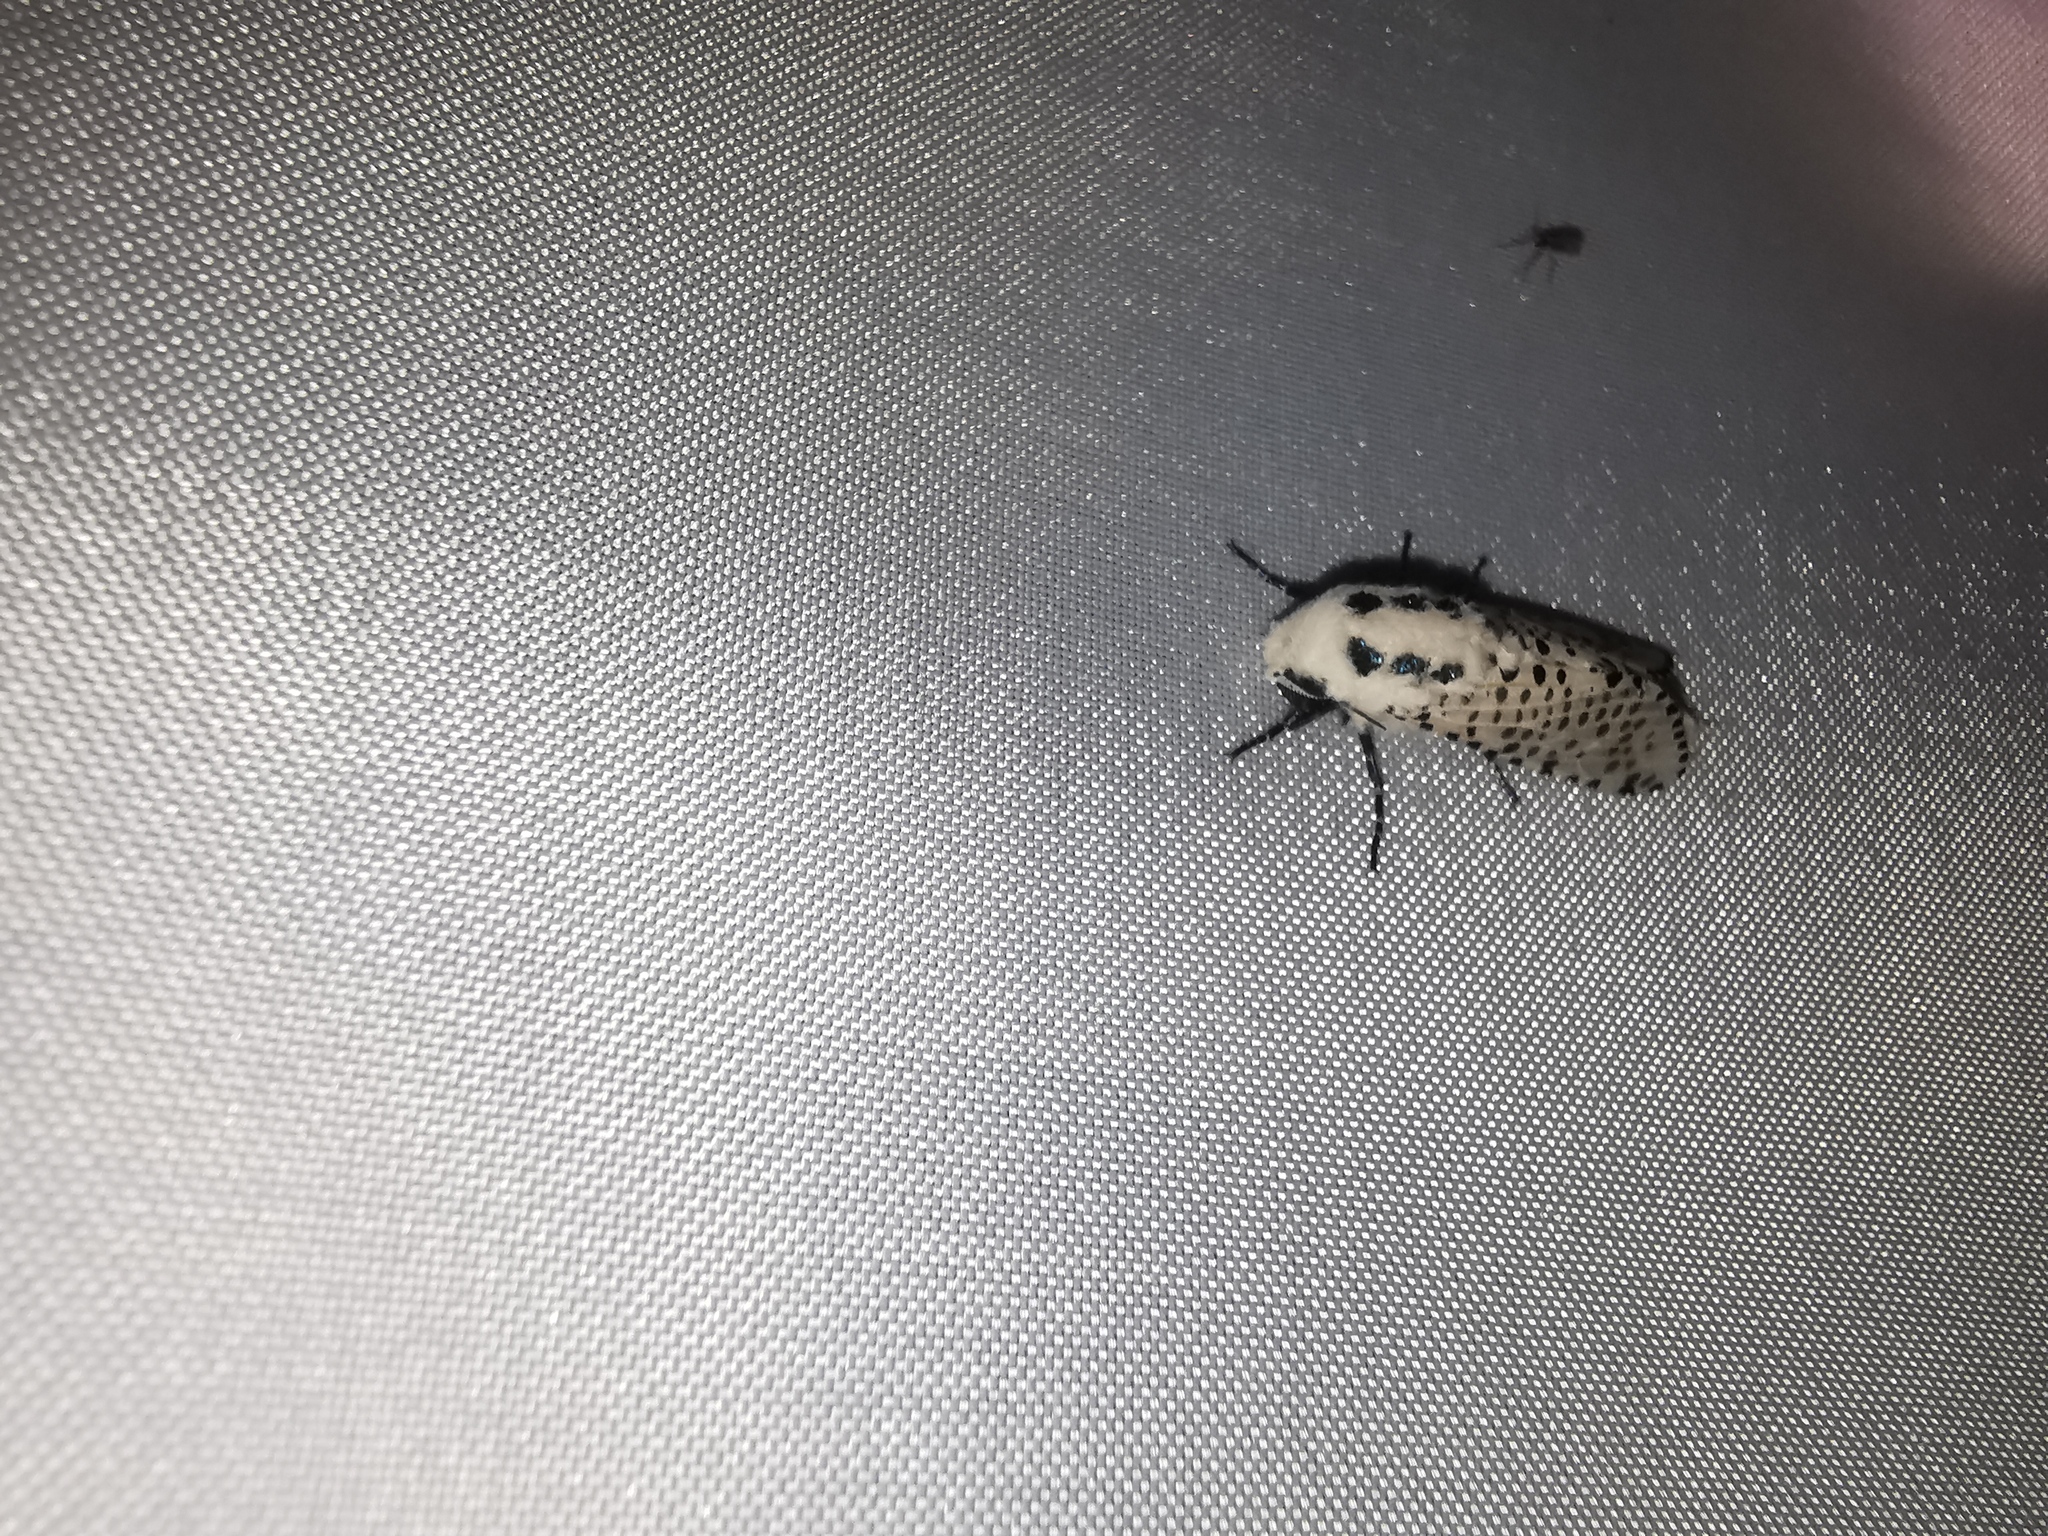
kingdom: Animalia
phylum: Arthropoda
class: Insecta
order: Lepidoptera
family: Cossidae
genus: Zeuzera
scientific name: Zeuzera pyrina
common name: Leopard moth
